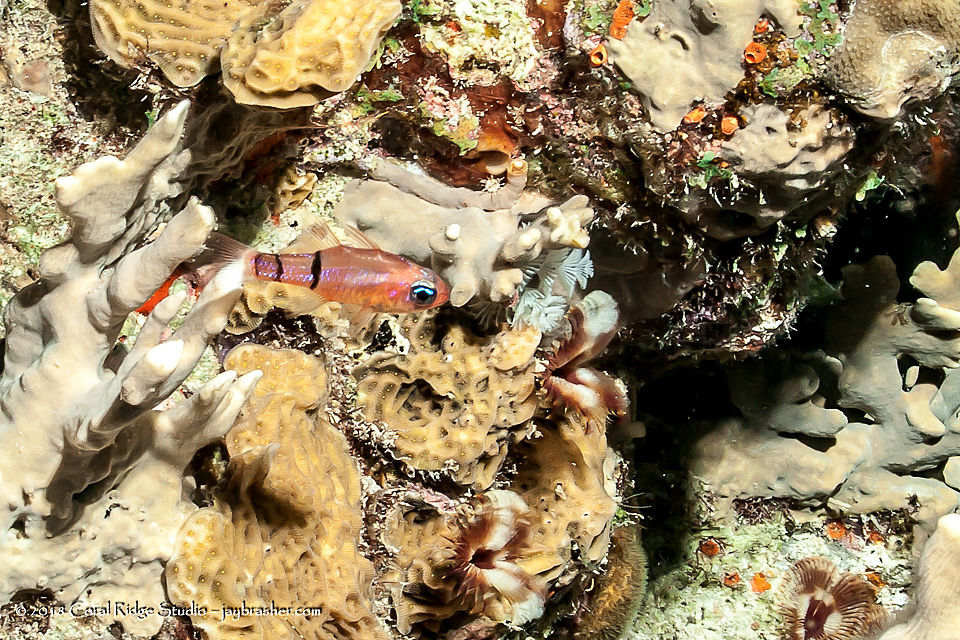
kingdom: Animalia
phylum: Chordata
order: Perciformes
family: Apogonidae
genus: Apogon
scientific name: Apogon townsendi
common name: Belted cardinalfish
